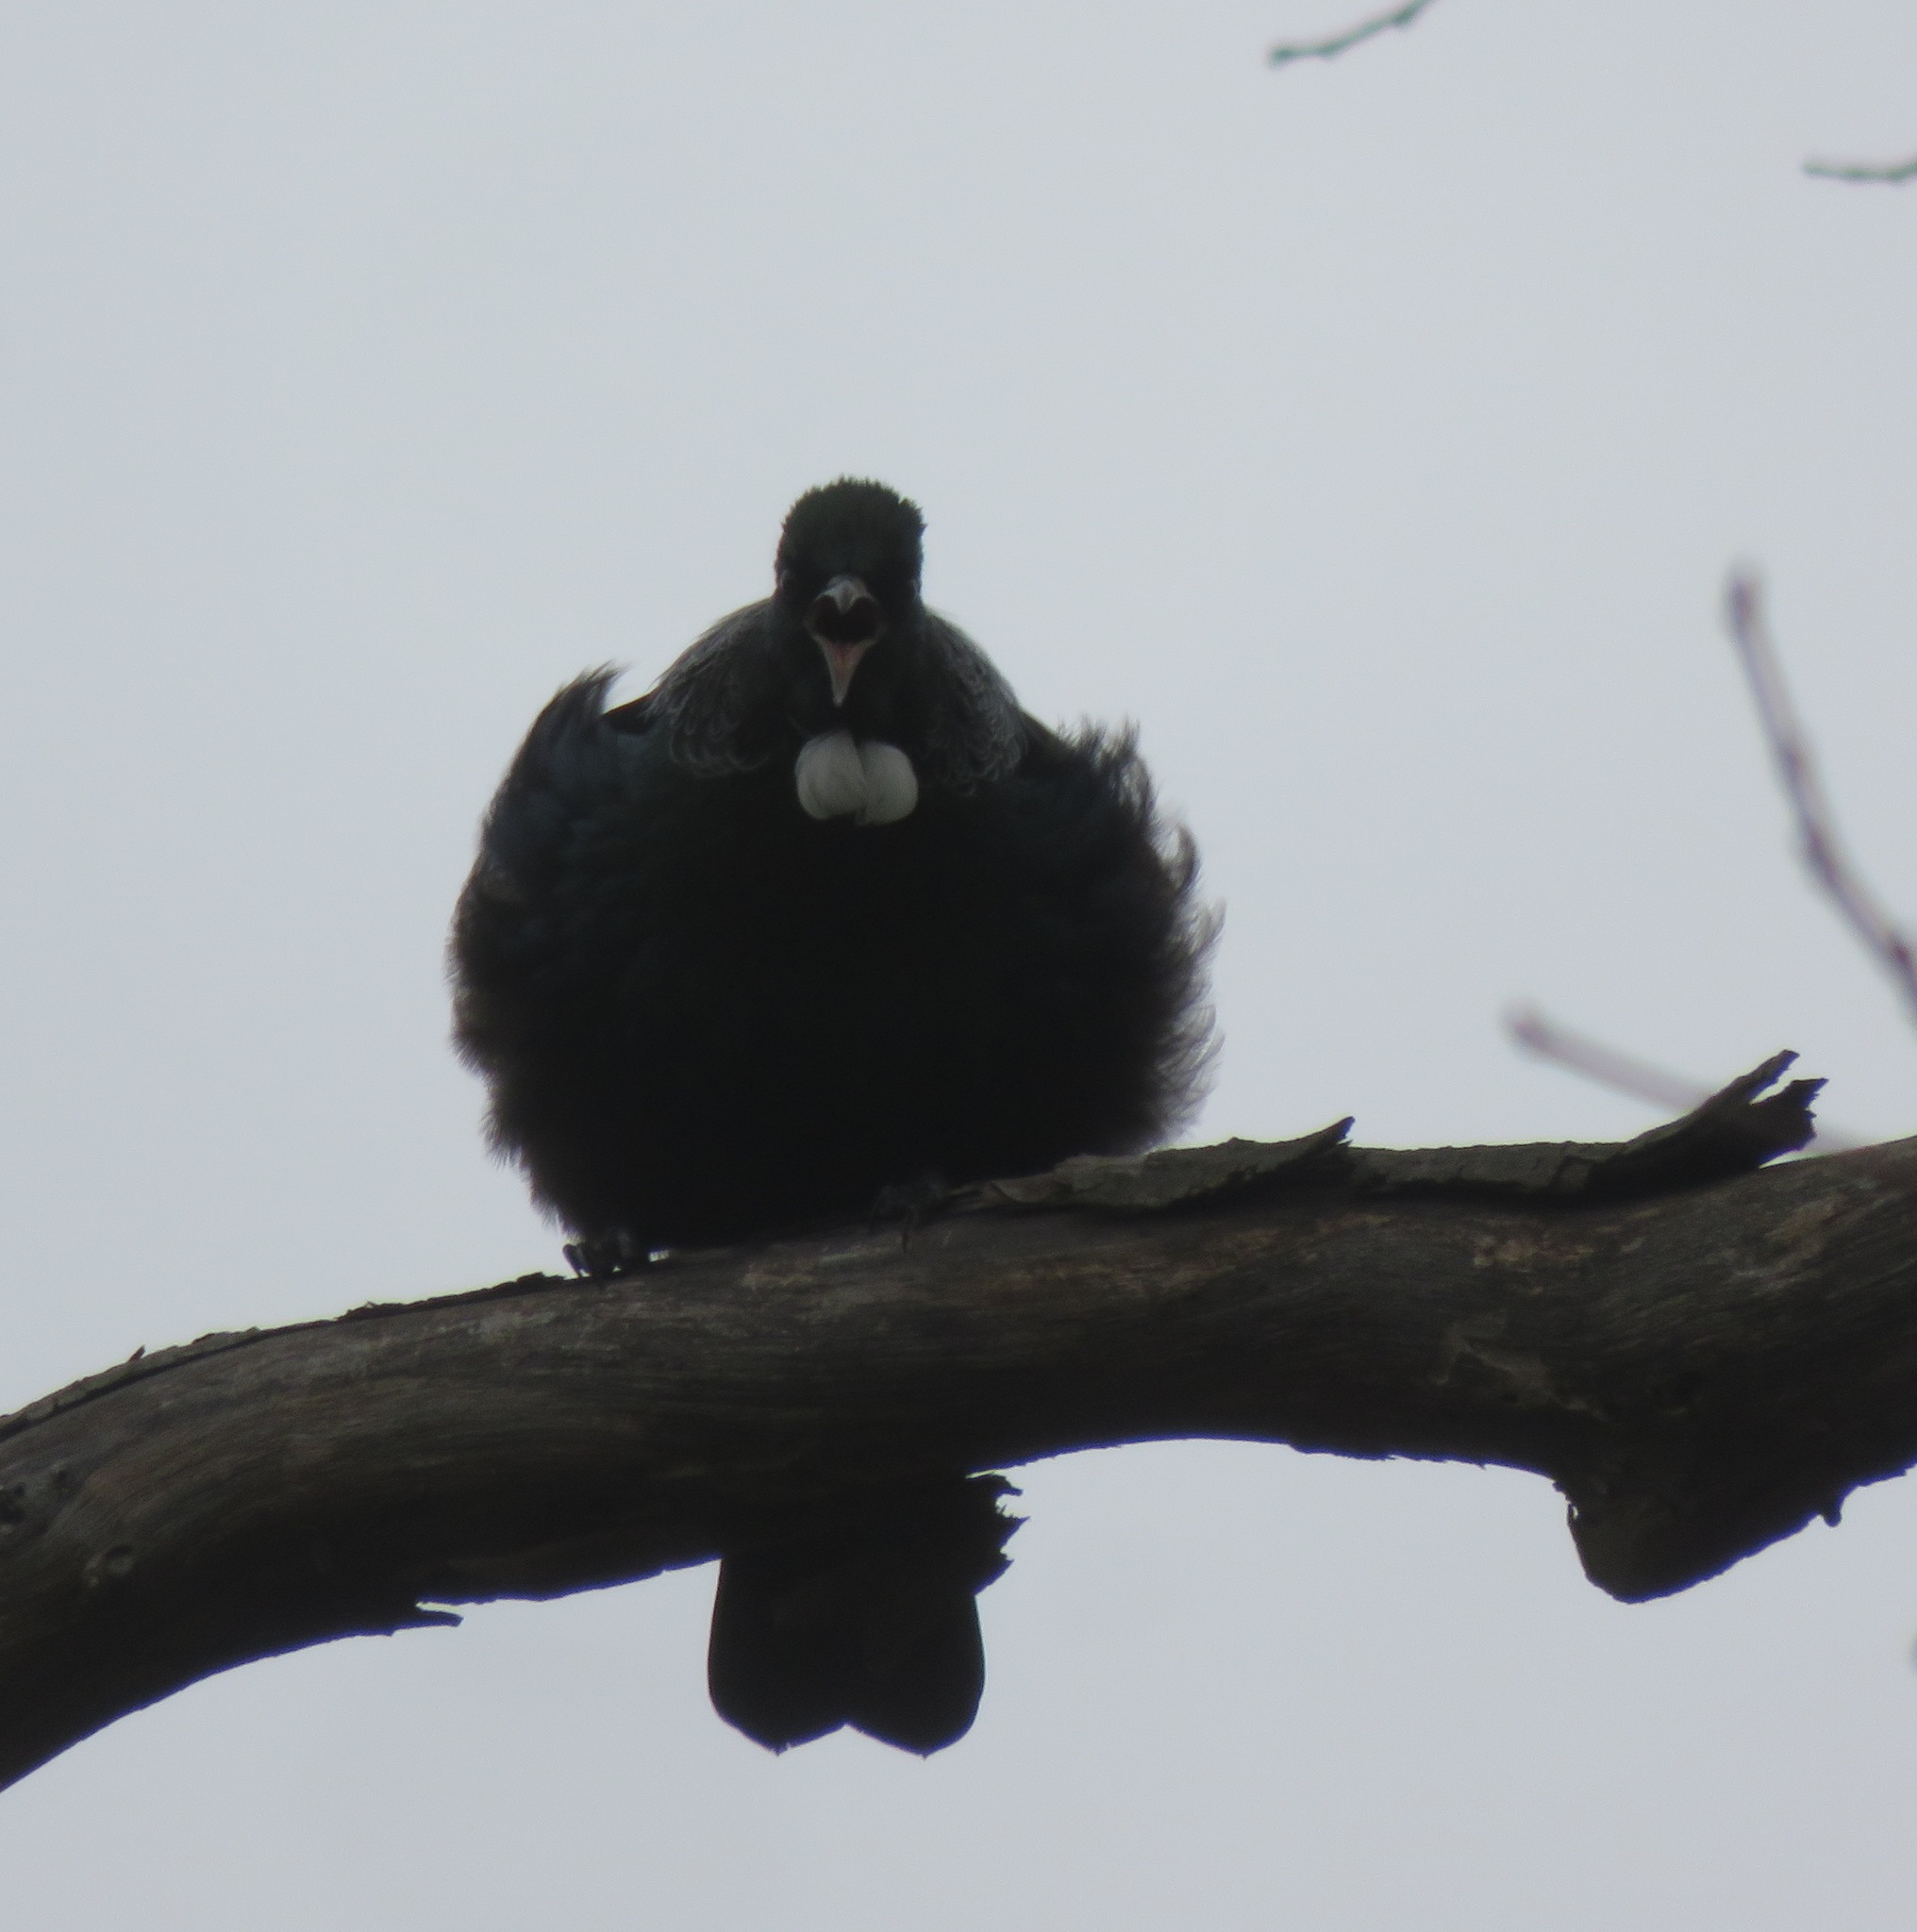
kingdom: Animalia
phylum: Chordata
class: Aves
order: Passeriformes
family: Meliphagidae
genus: Prosthemadera
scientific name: Prosthemadera novaeseelandiae
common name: Tui
